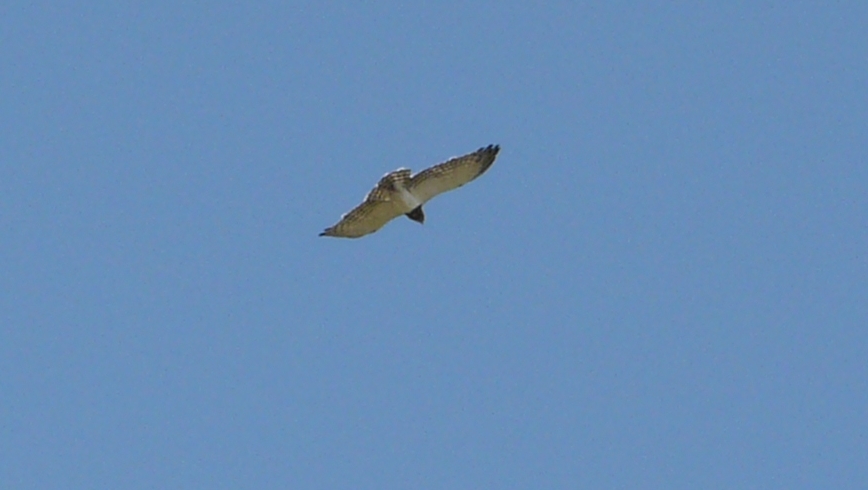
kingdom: Animalia
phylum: Chordata
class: Aves
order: Accipitriformes
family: Accipitridae
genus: Circaetus
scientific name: Circaetus pectoralis
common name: Black-chested snake eagle
